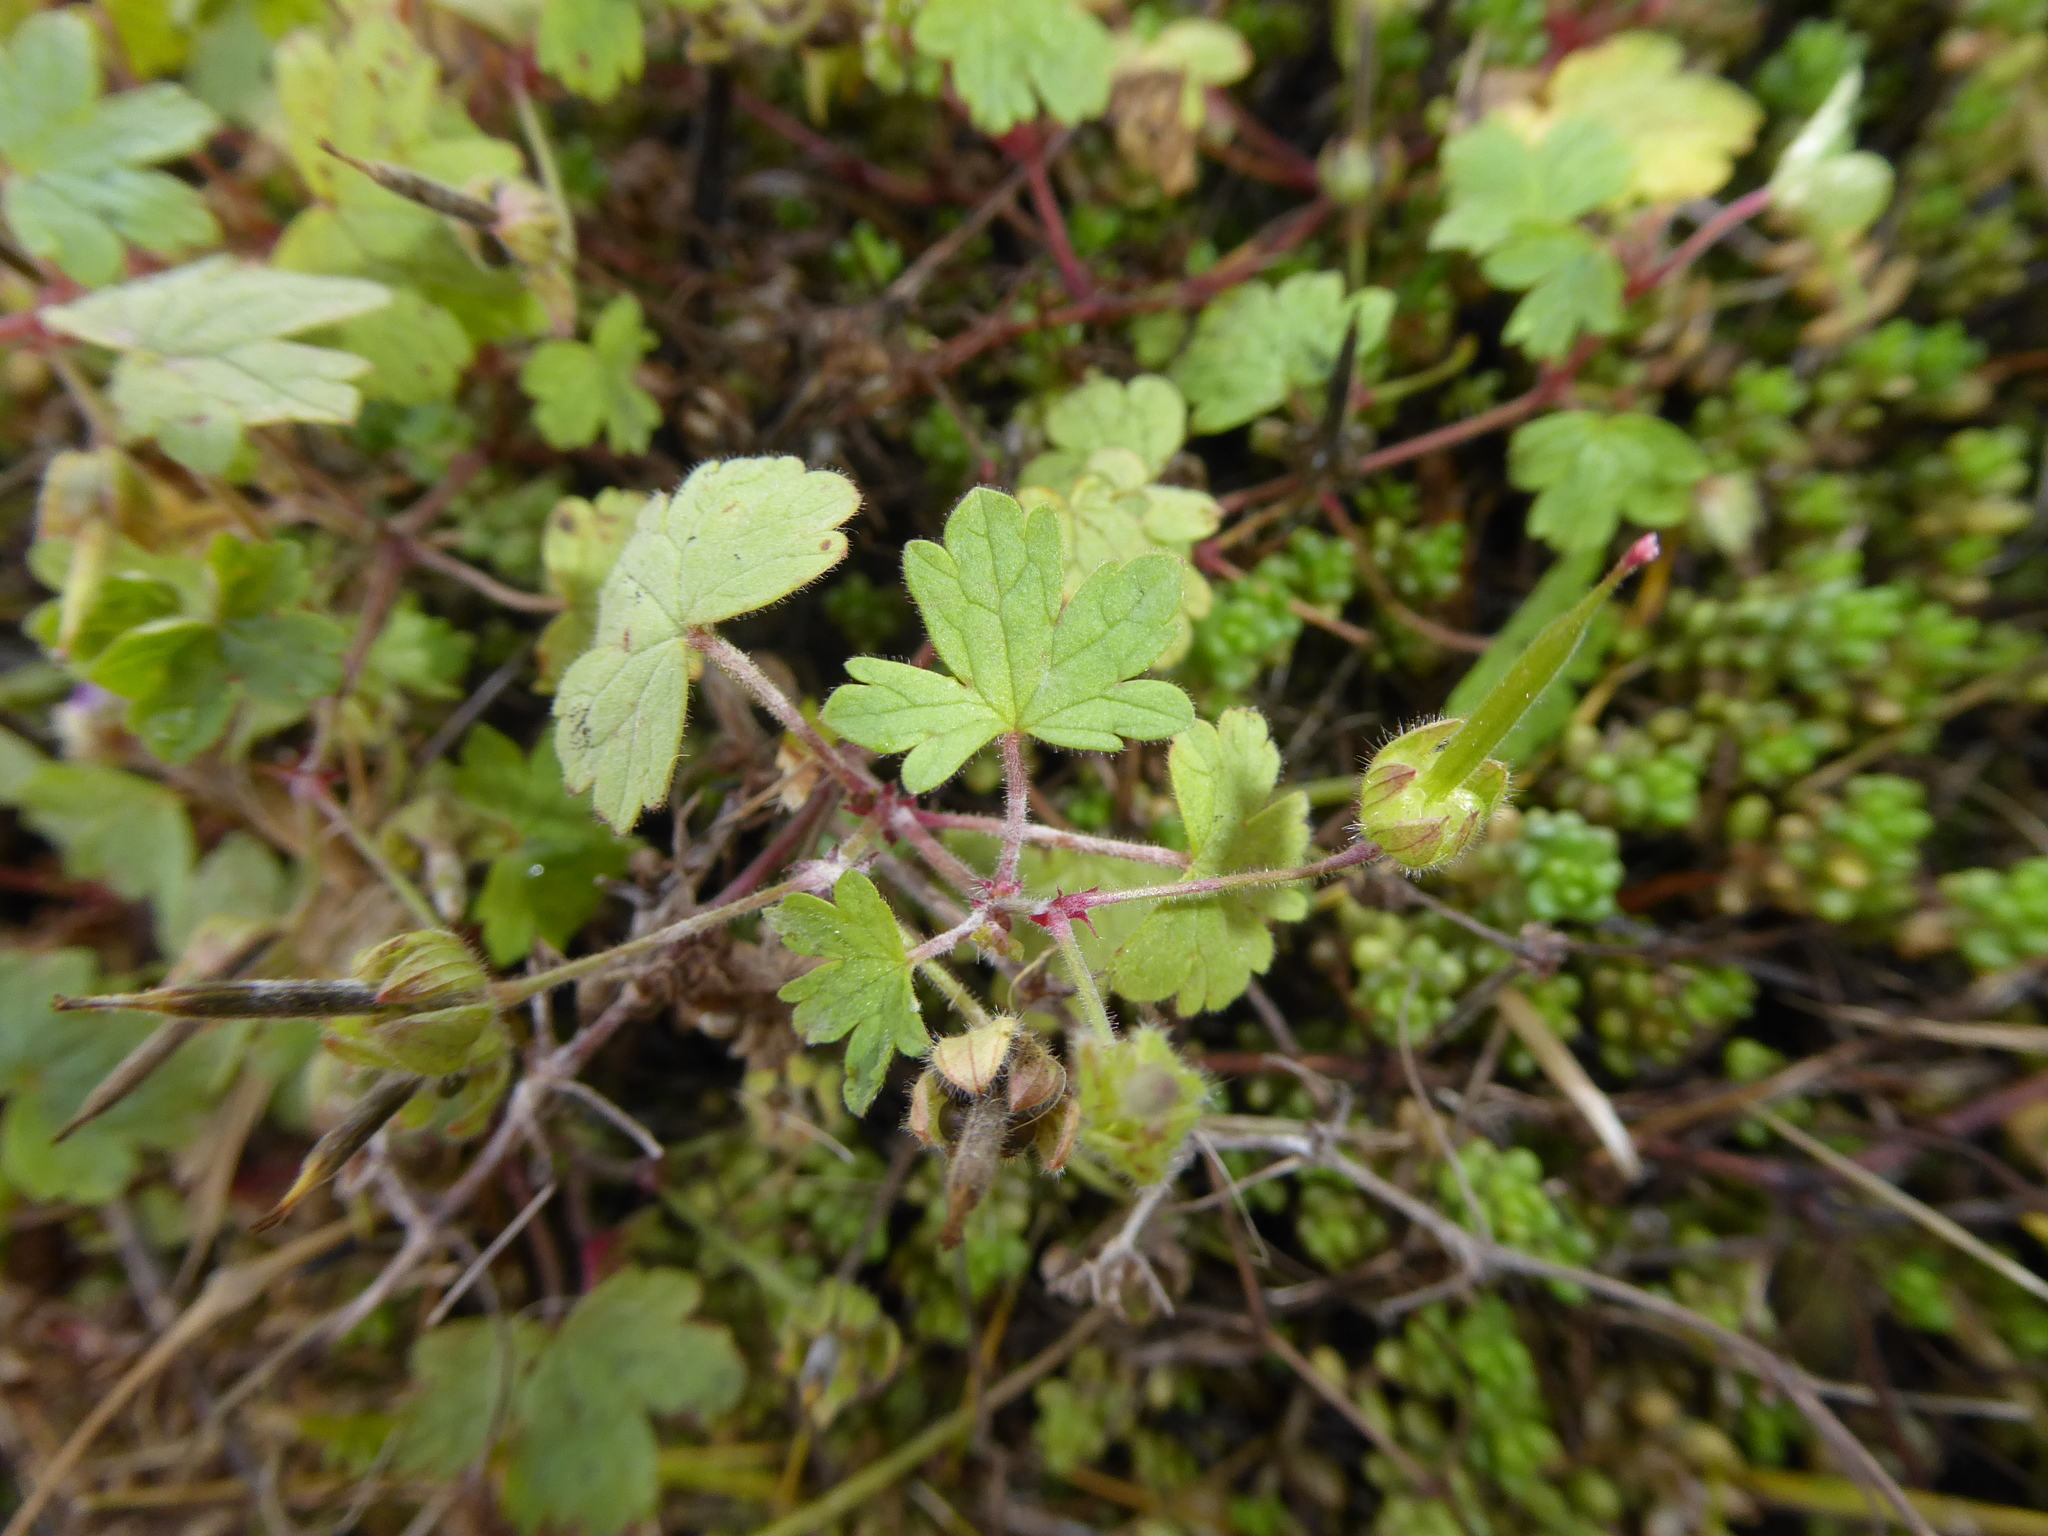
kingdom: Plantae
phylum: Tracheophyta
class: Magnoliopsida
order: Geraniales
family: Geraniaceae
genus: Geranium
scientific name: Geranium rotundifolium
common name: Round-leaved crane's-bill
